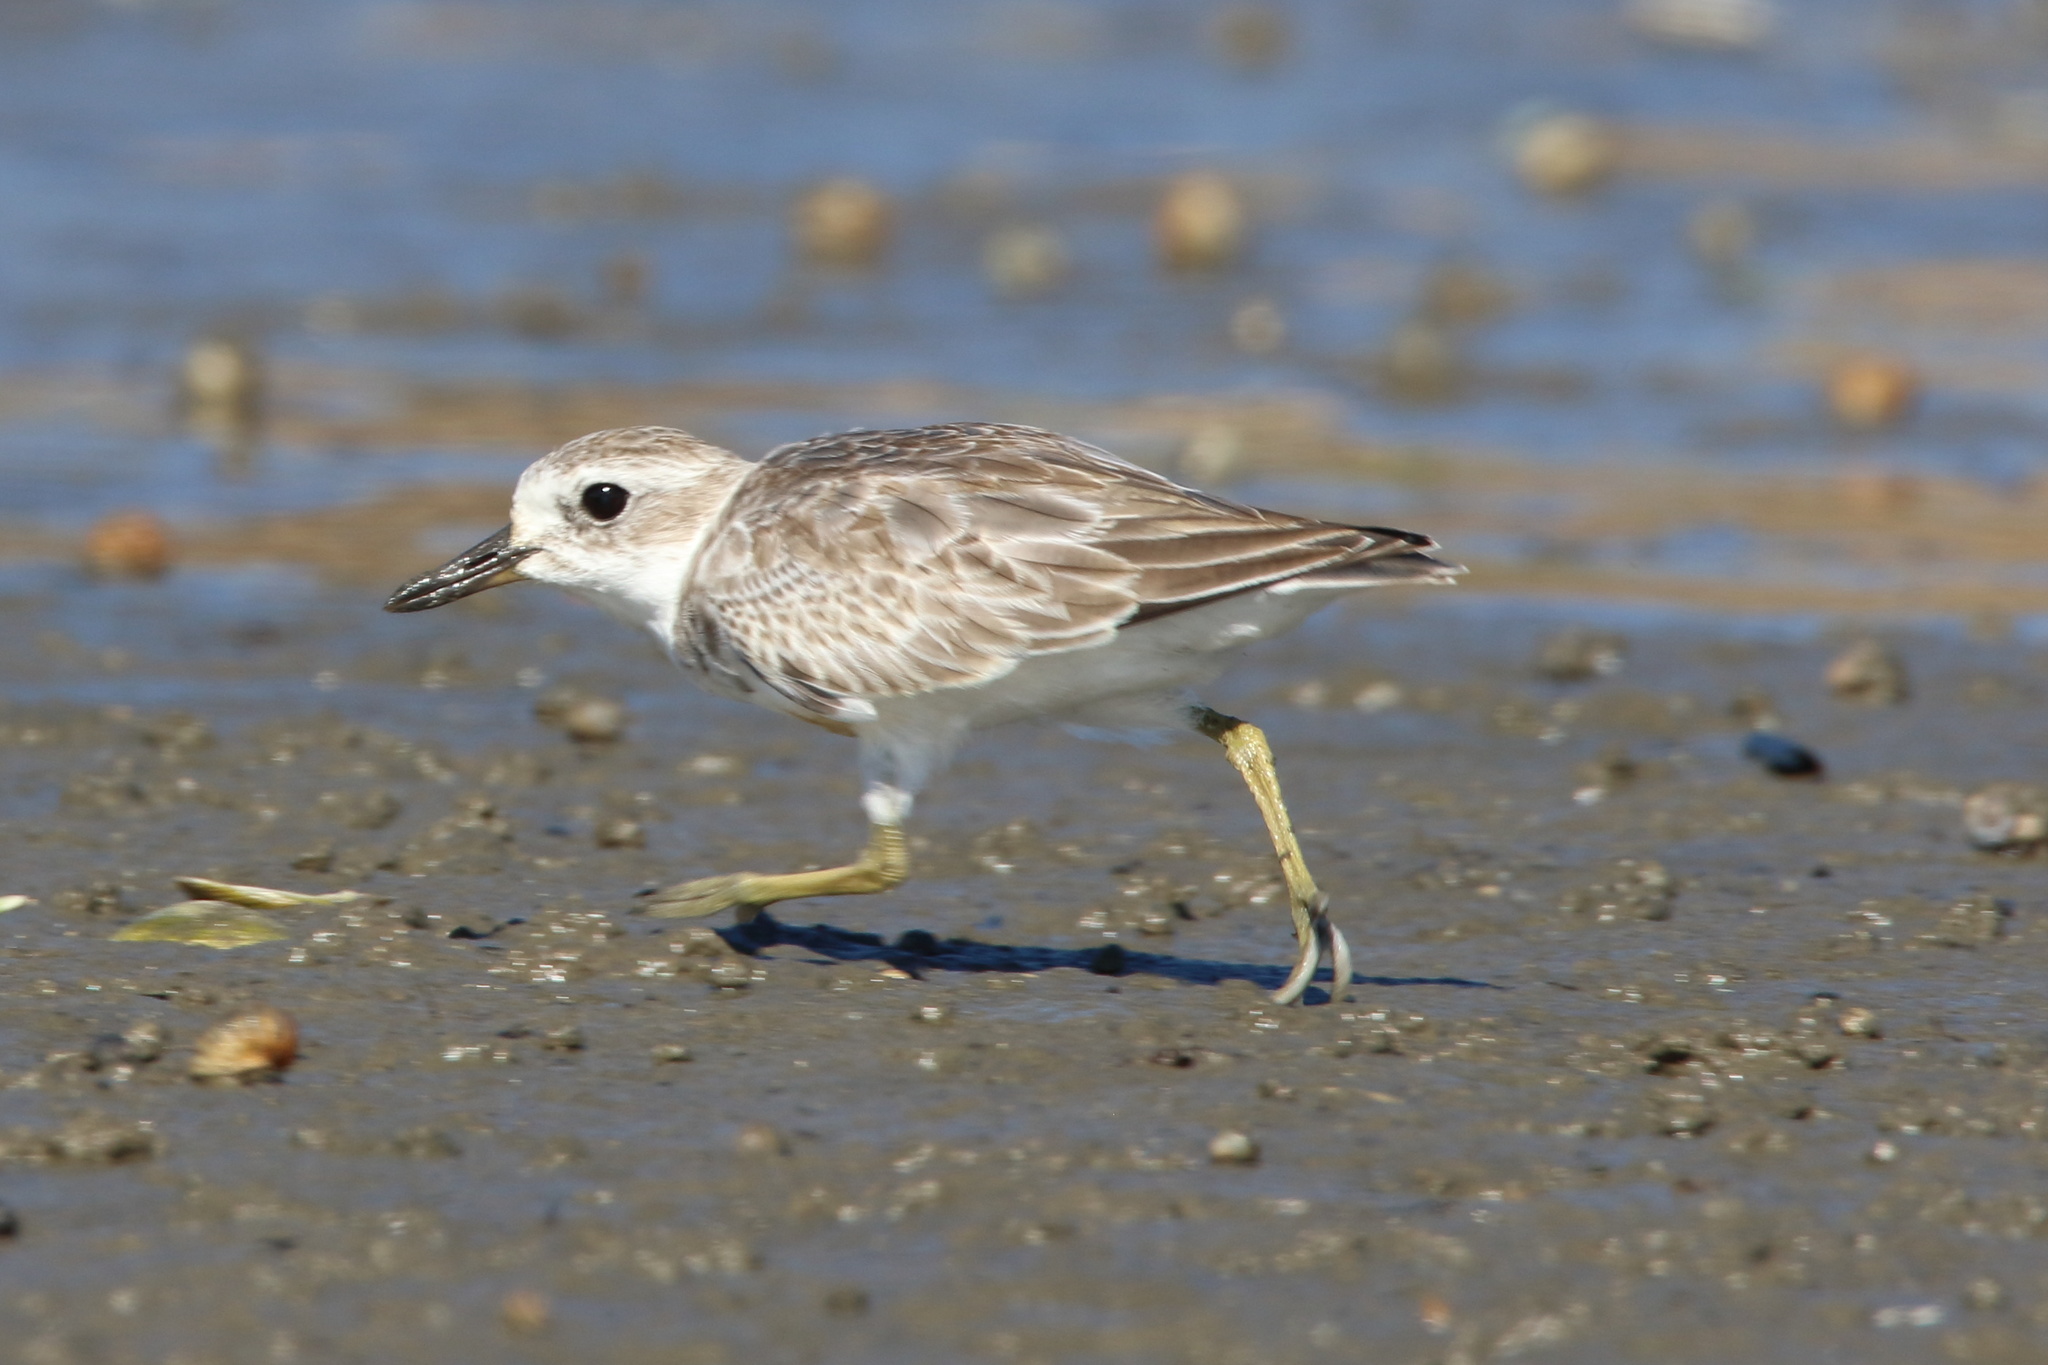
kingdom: Animalia
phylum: Chordata
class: Aves
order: Charadriiformes
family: Charadriidae
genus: Anarhynchus
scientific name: Anarhynchus
